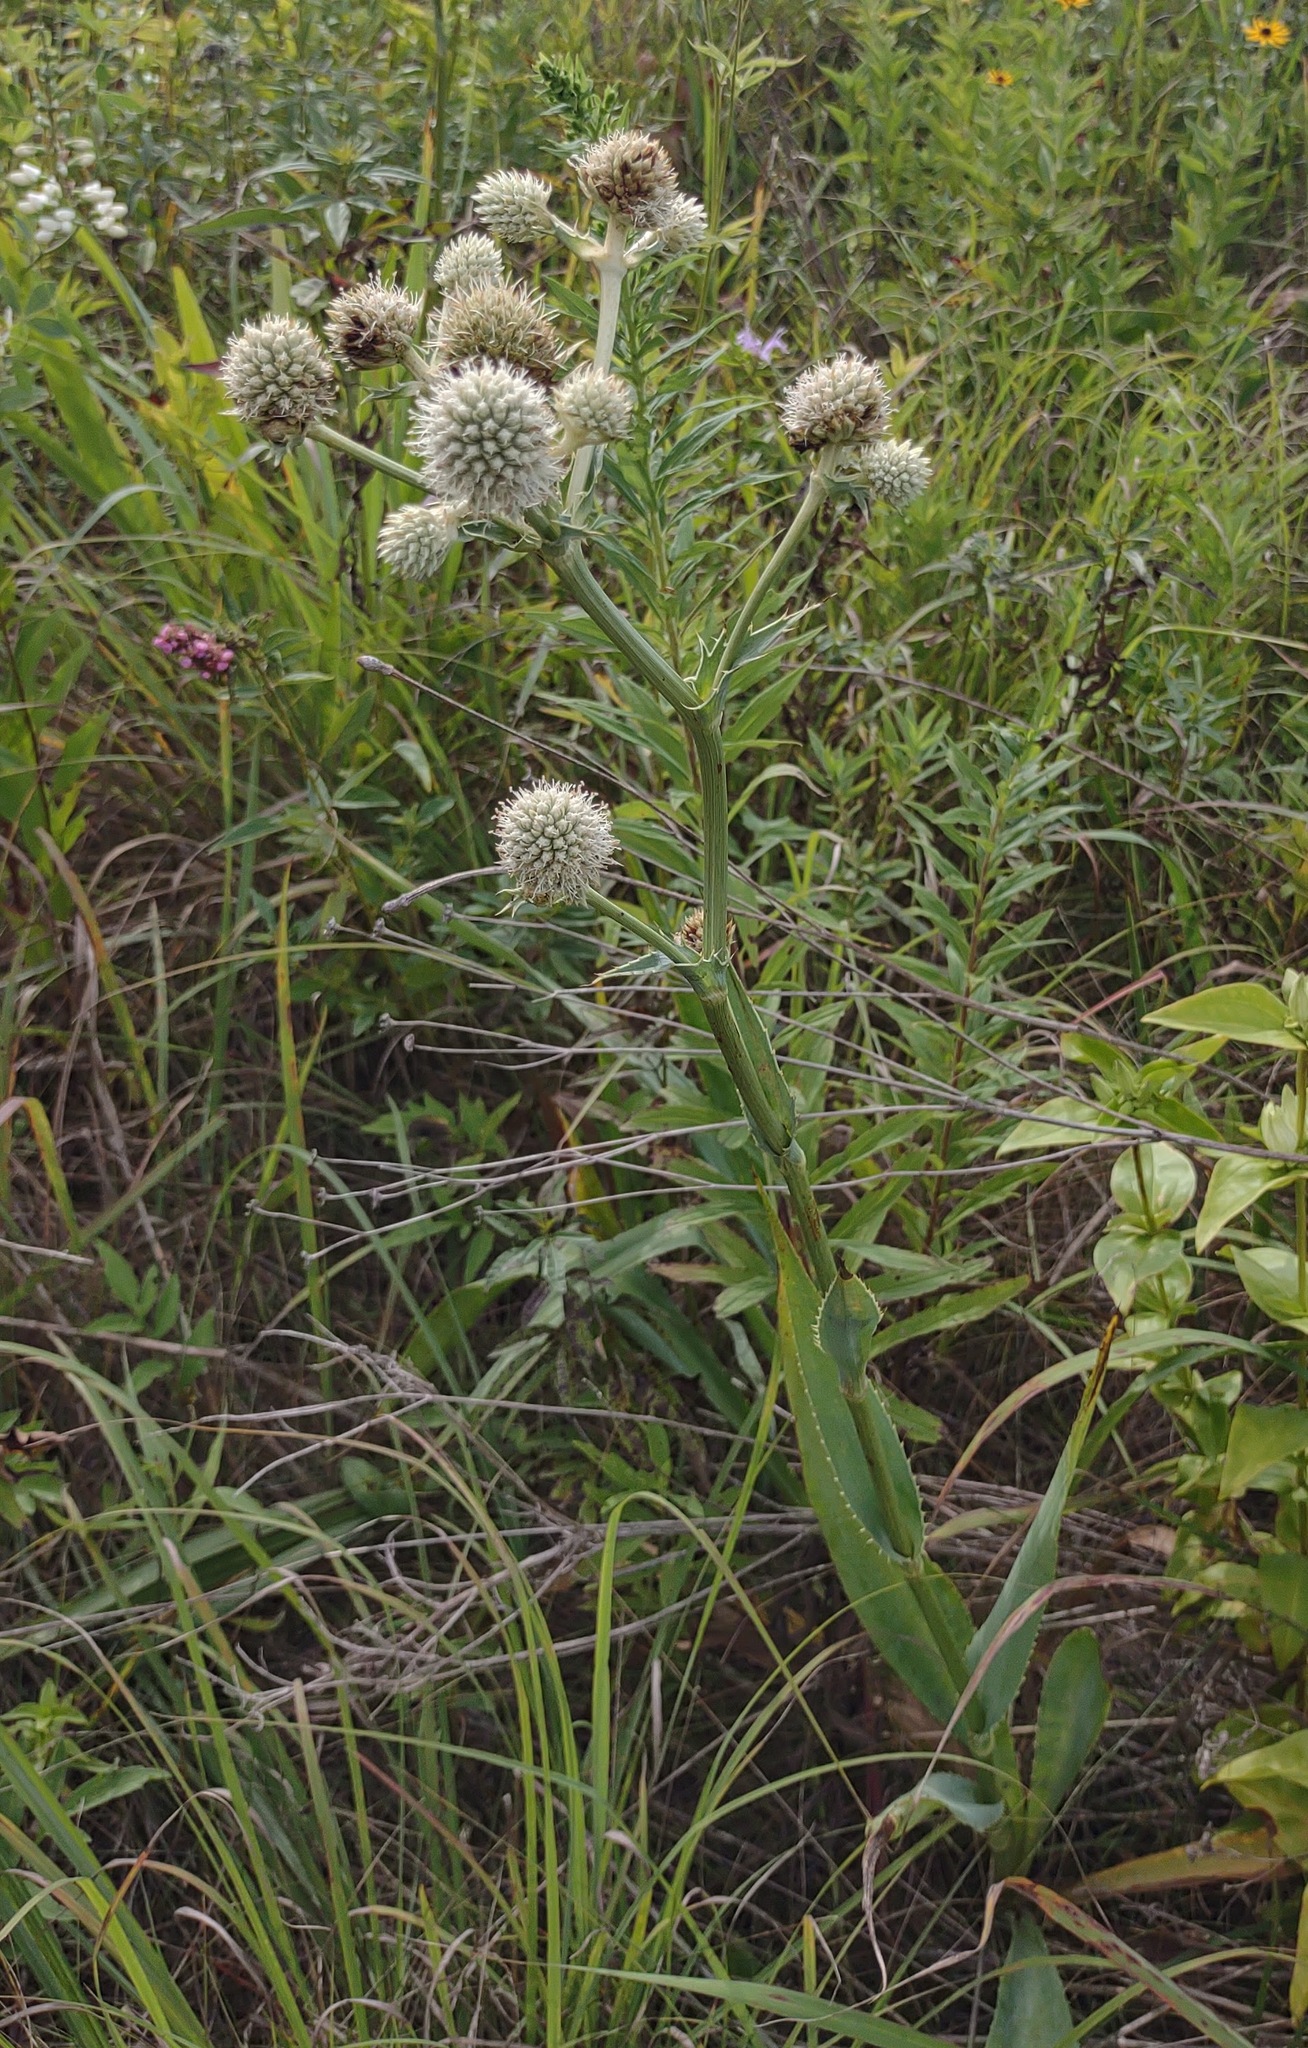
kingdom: Plantae
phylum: Tracheophyta
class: Magnoliopsida
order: Apiales
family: Apiaceae
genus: Eryngium
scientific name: Eryngium yuccifolium
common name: Button eryngo
